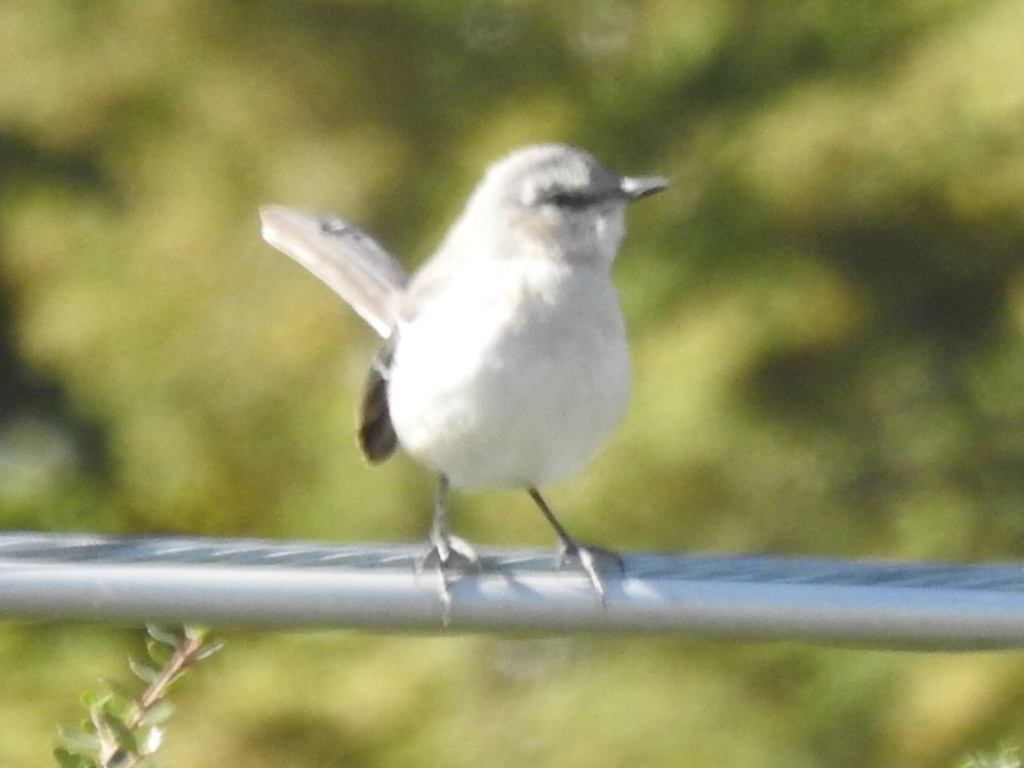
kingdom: Animalia
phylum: Chordata
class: Aves
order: Passeriformes
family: Mimidae
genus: Mimus
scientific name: Mimus polyglottos
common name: Northern mockingbird
